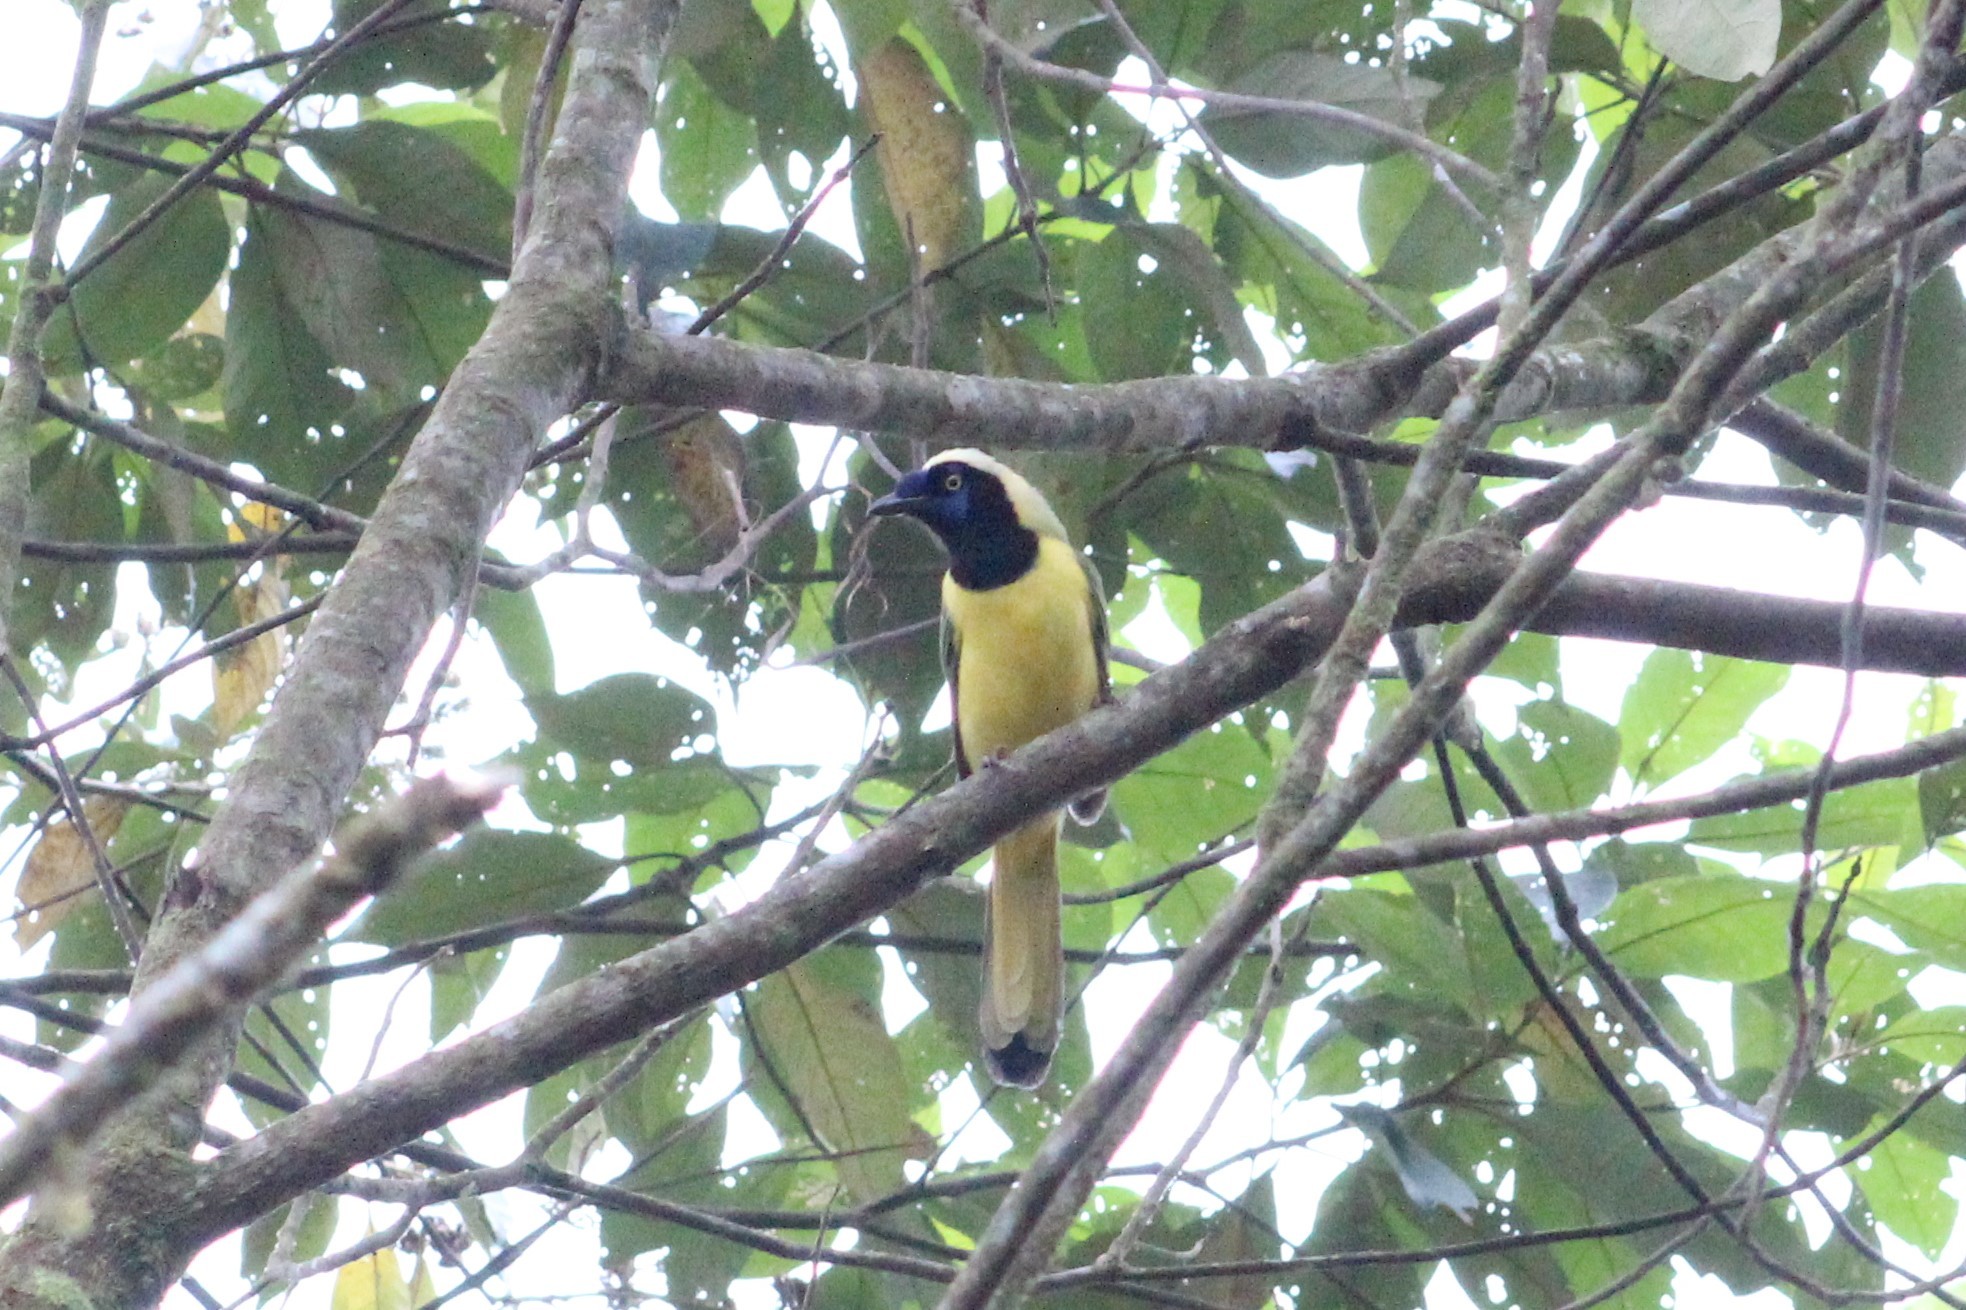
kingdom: Animalia
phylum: Chordata
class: Aves
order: Passeriformes
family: Corvidae
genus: Cyanocorax
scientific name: Cyanocorax yncas
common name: Green jay
